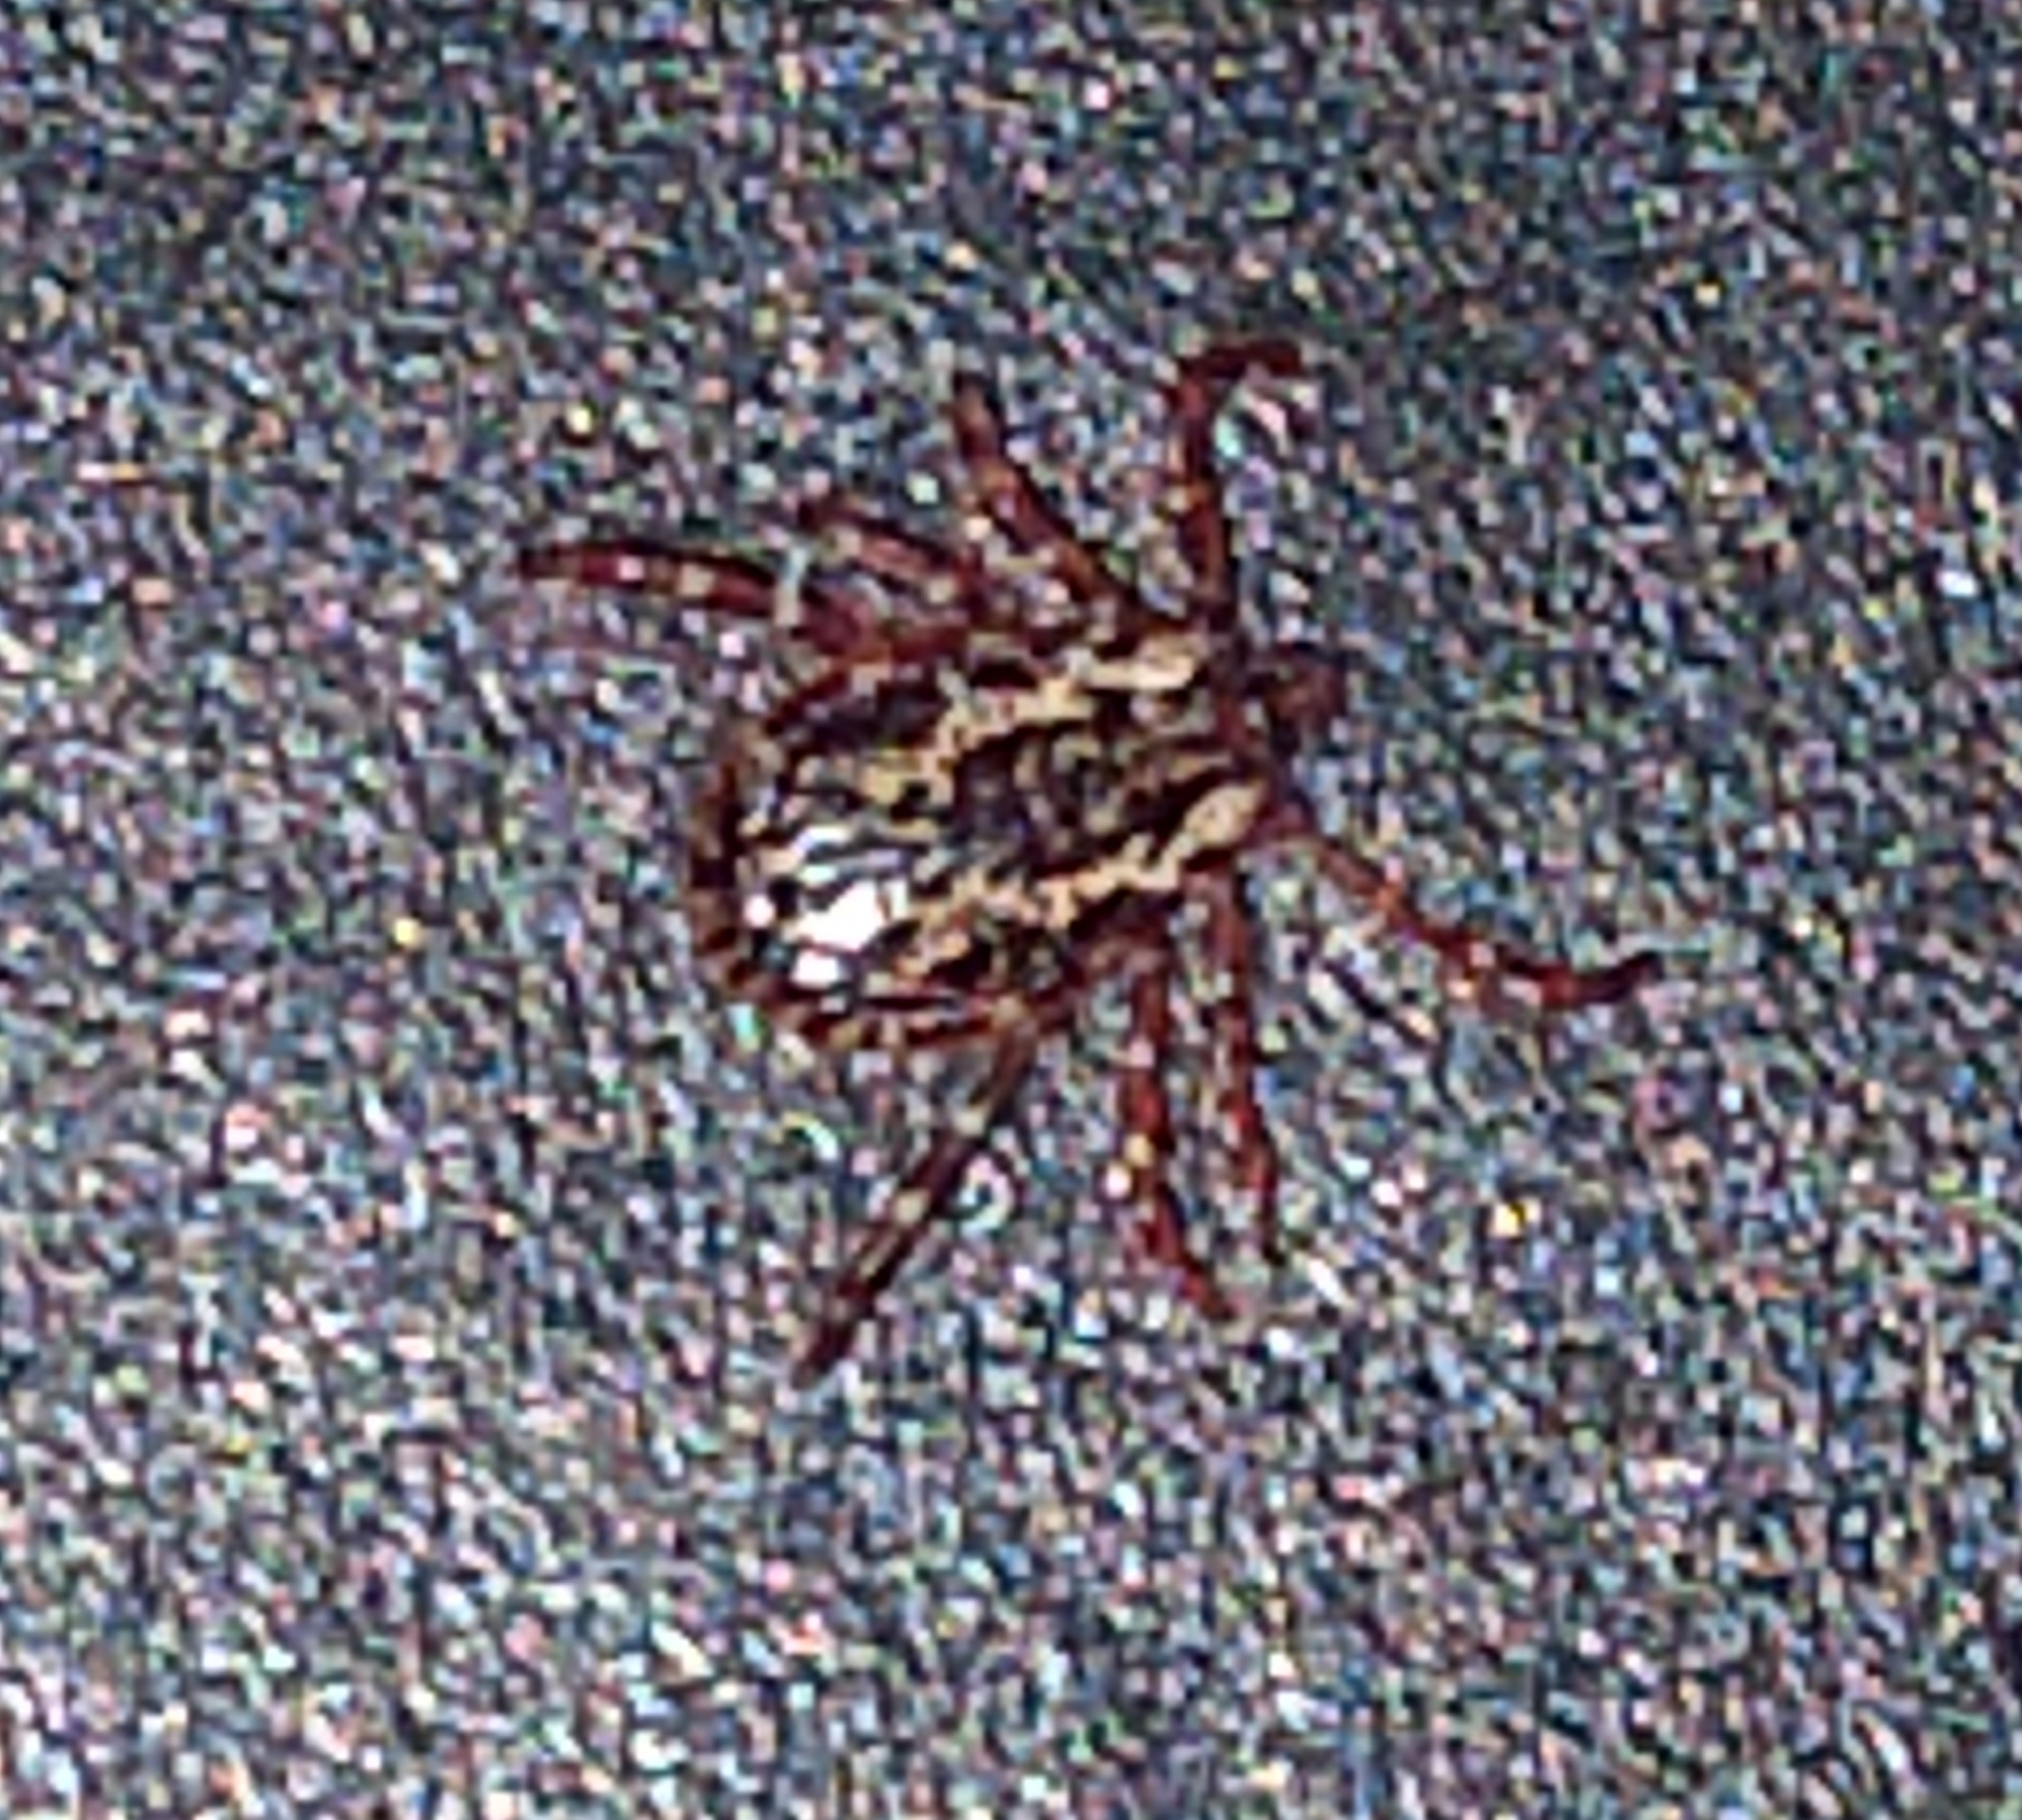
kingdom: Animalia
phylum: Arthropoda
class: Arachnida
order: Ixodida
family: Ixodidae
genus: Dermacentor
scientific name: Dermacentor variabilis
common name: American dog tick
